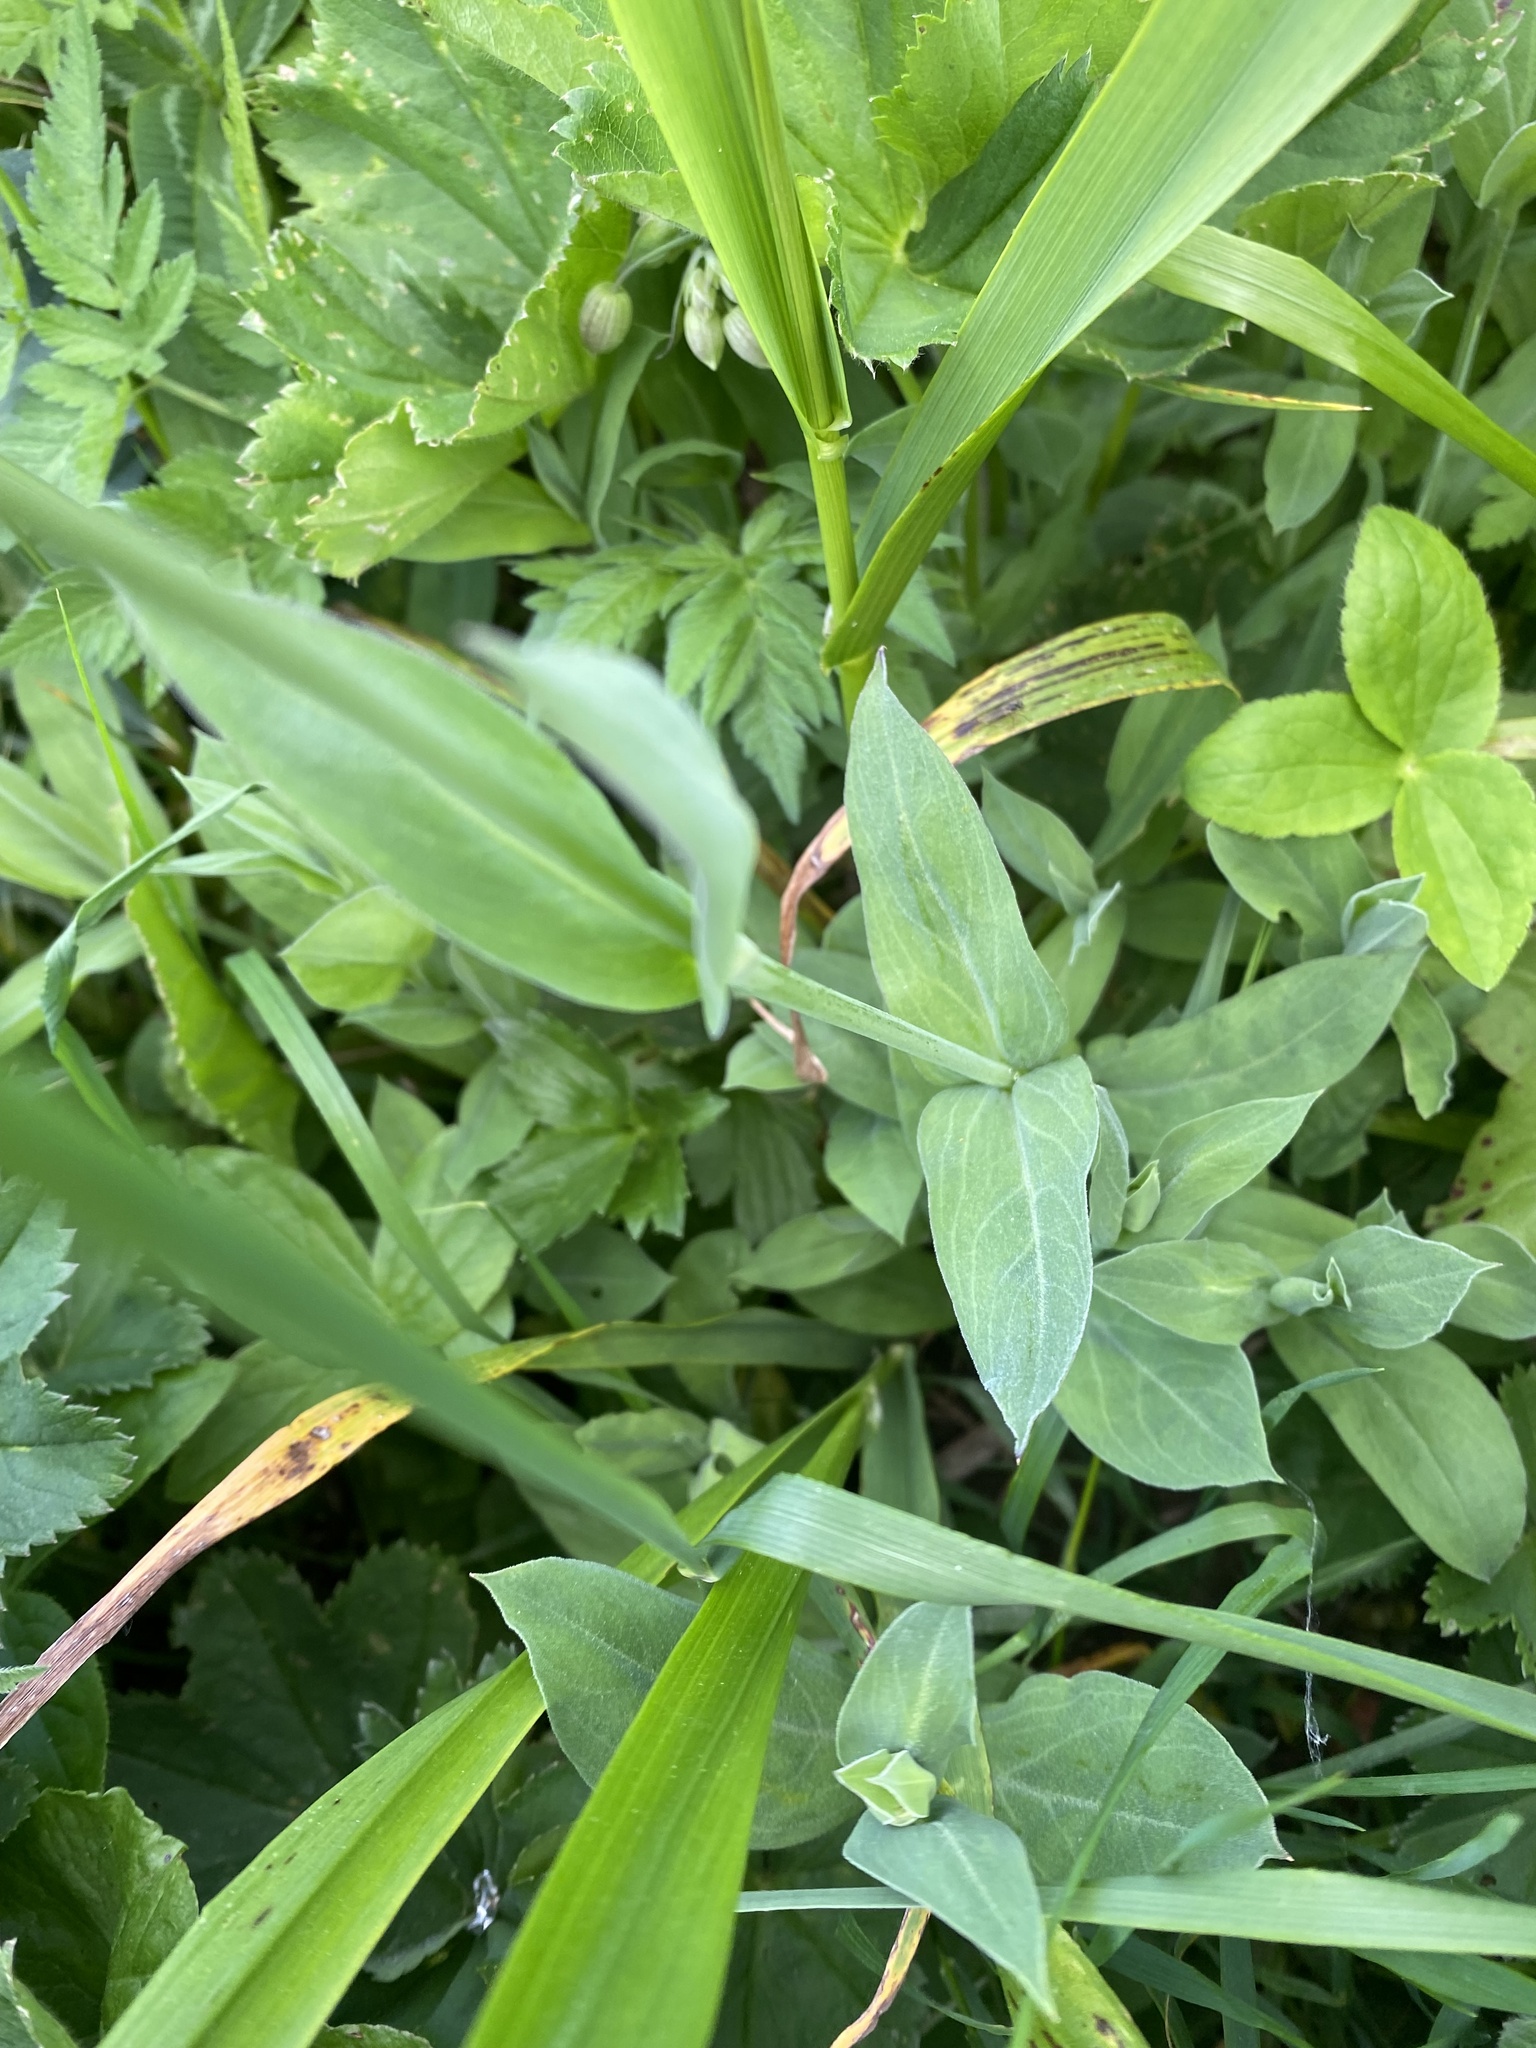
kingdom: Plantae
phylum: Tracheophyta
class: Magnoliopsida
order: Caryophyllales
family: Caryophyllaceae
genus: Silene
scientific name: Silene vulgaris
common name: Bladder campion
